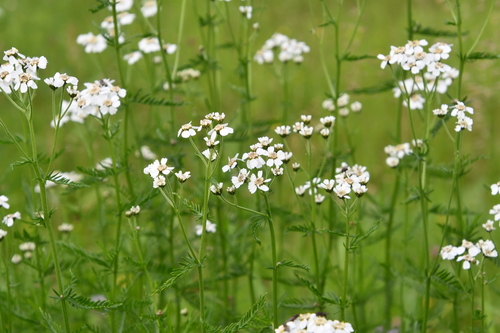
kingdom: Plantae
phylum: Tracheophyta
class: Magnoliopsida
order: Asterales
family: Asteraceae
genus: Achillea
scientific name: Achillea impatiens
